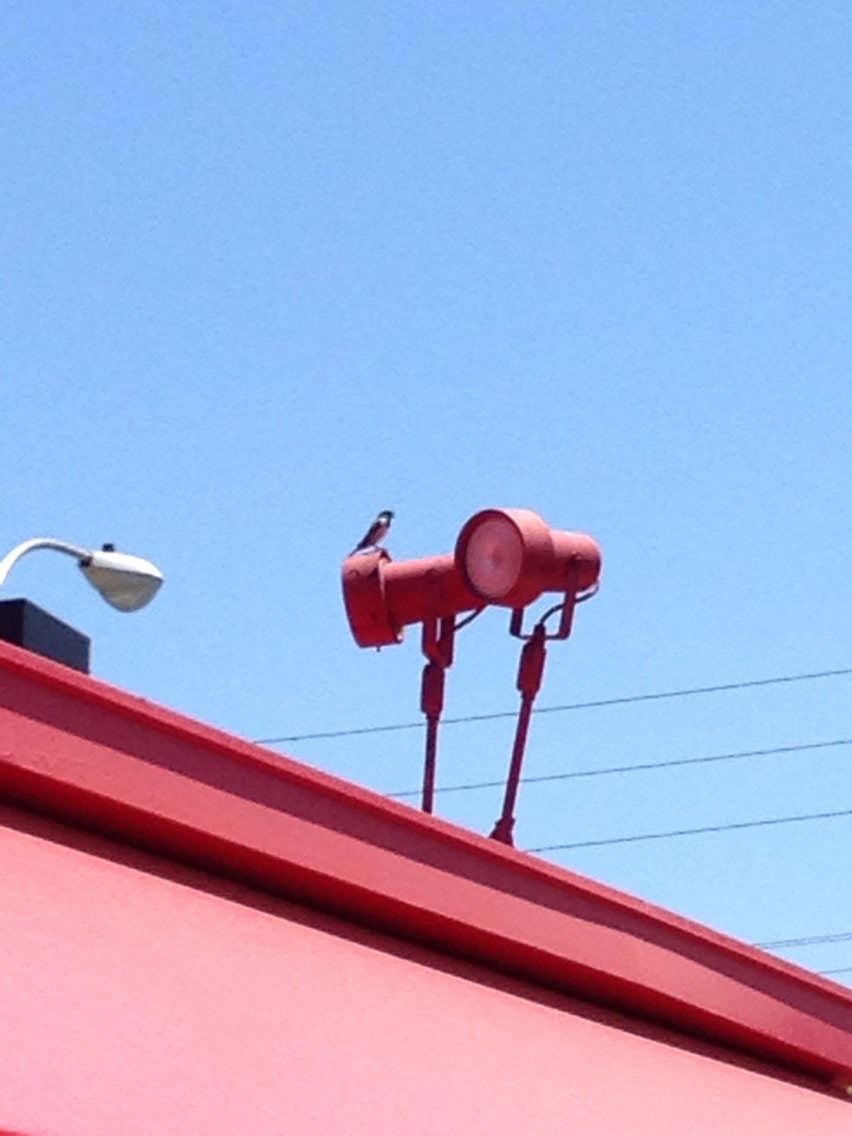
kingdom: Animalia
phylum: Chordata
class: Aves
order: Passeriformes
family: Passeridae
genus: Passer
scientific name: Passer domesticus
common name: House sparrow
